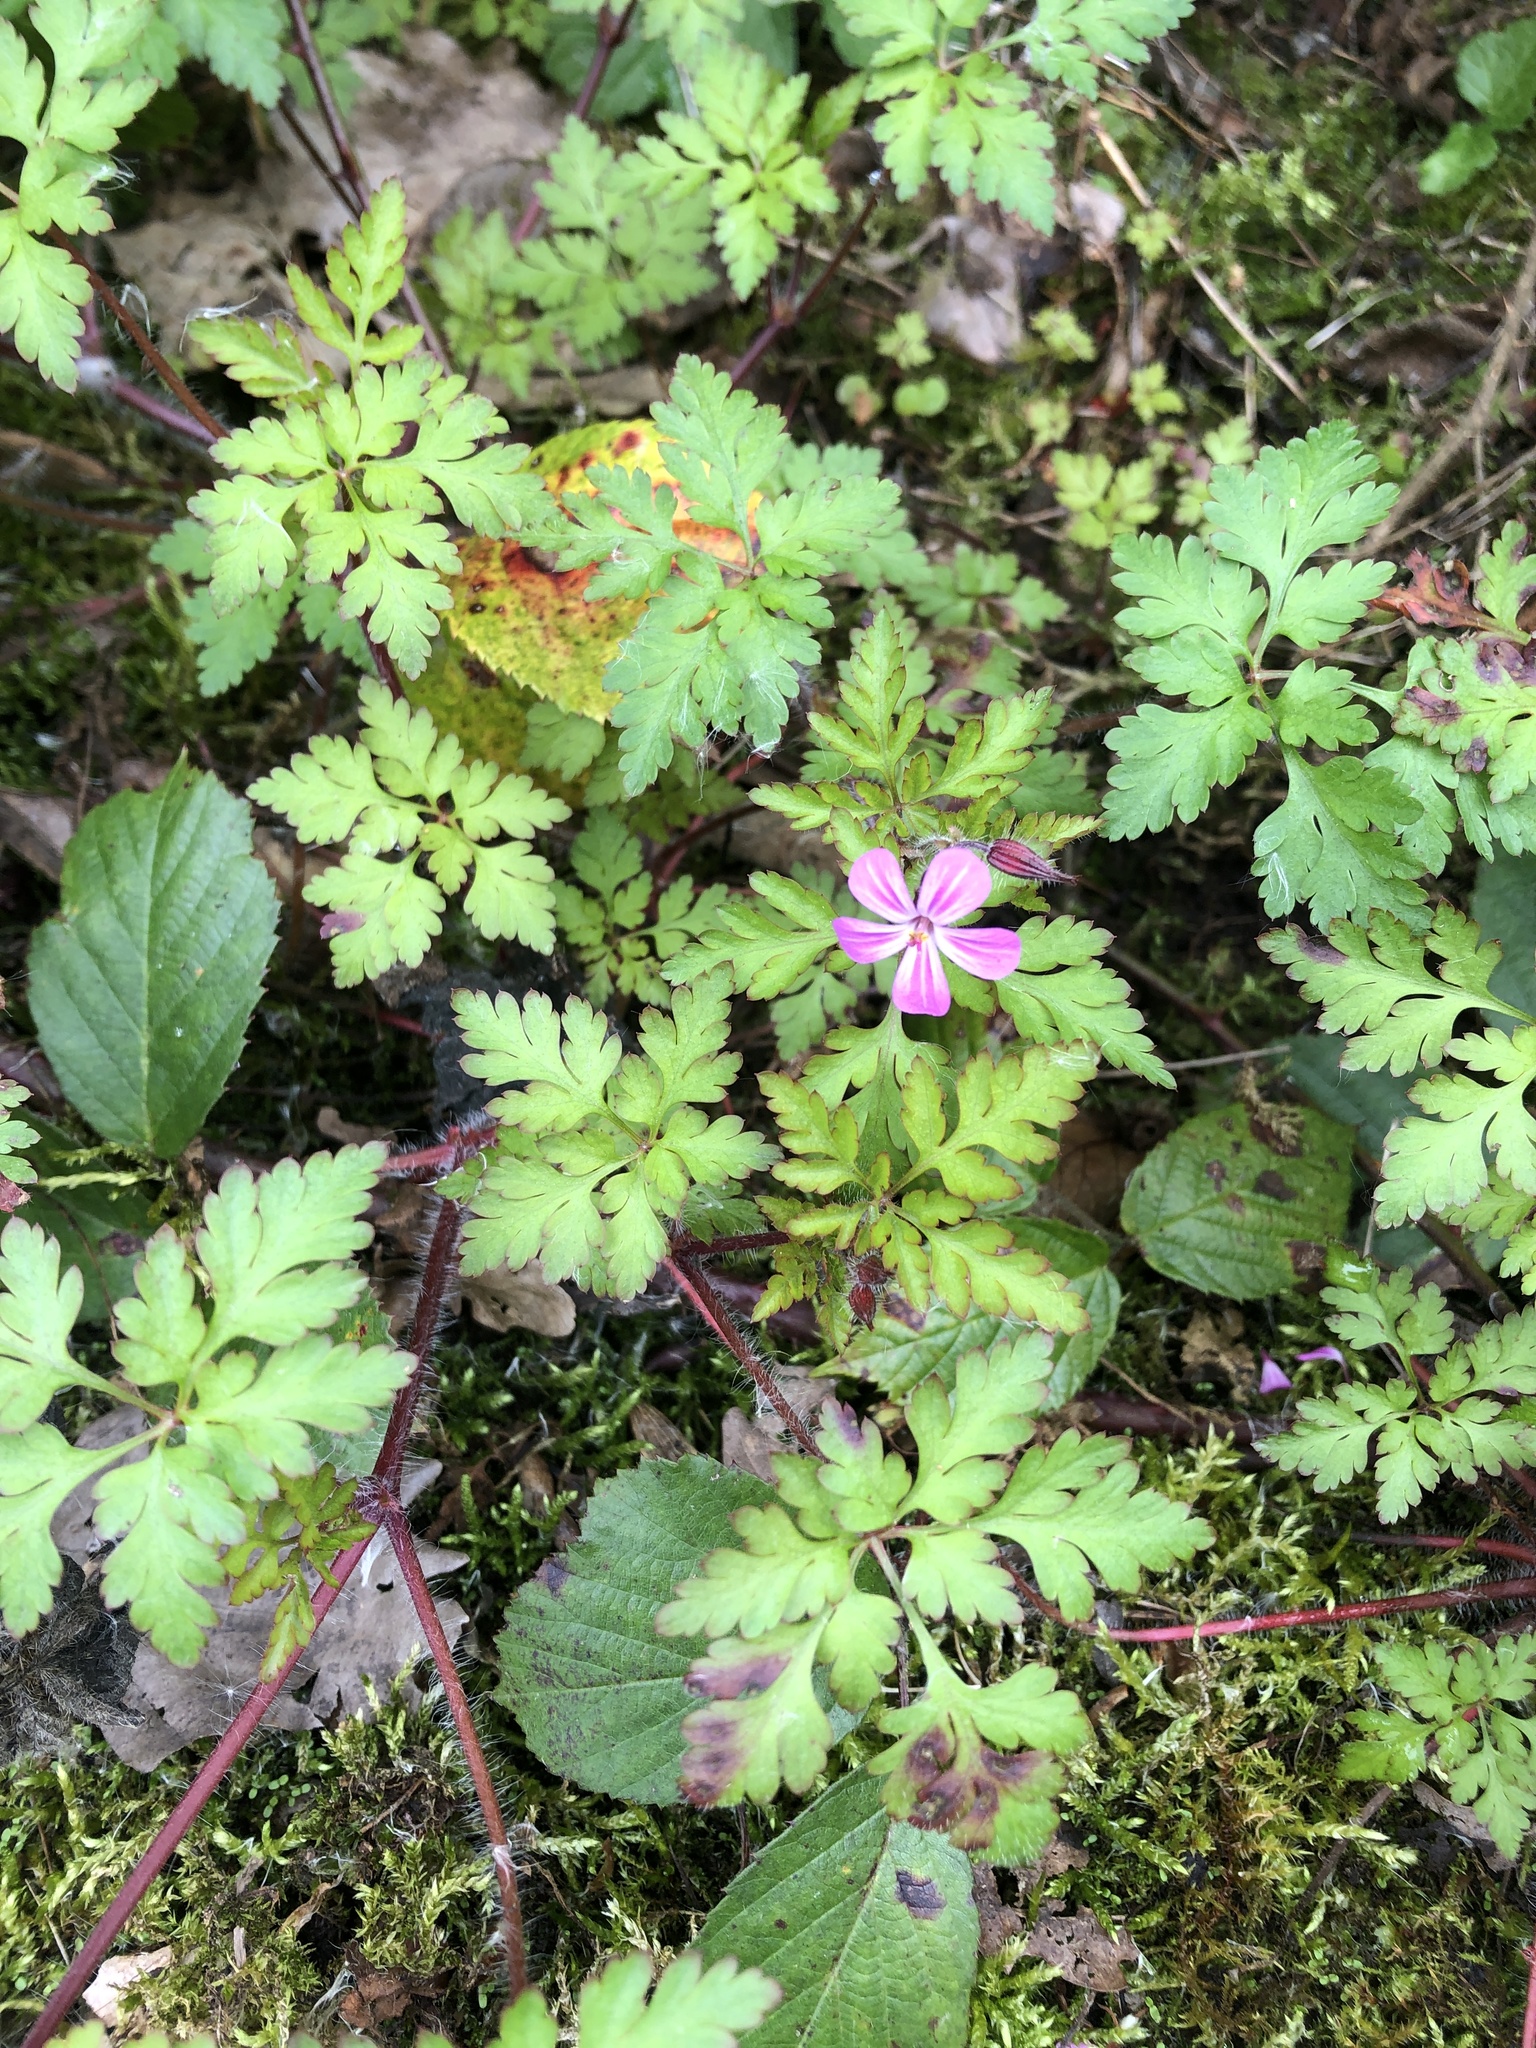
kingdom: Plantae
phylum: Tracheophyta
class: Magnoliopsida
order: Geraniales
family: Geraniaceae
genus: Geranium
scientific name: Geranium robertianum
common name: Herb-robert
